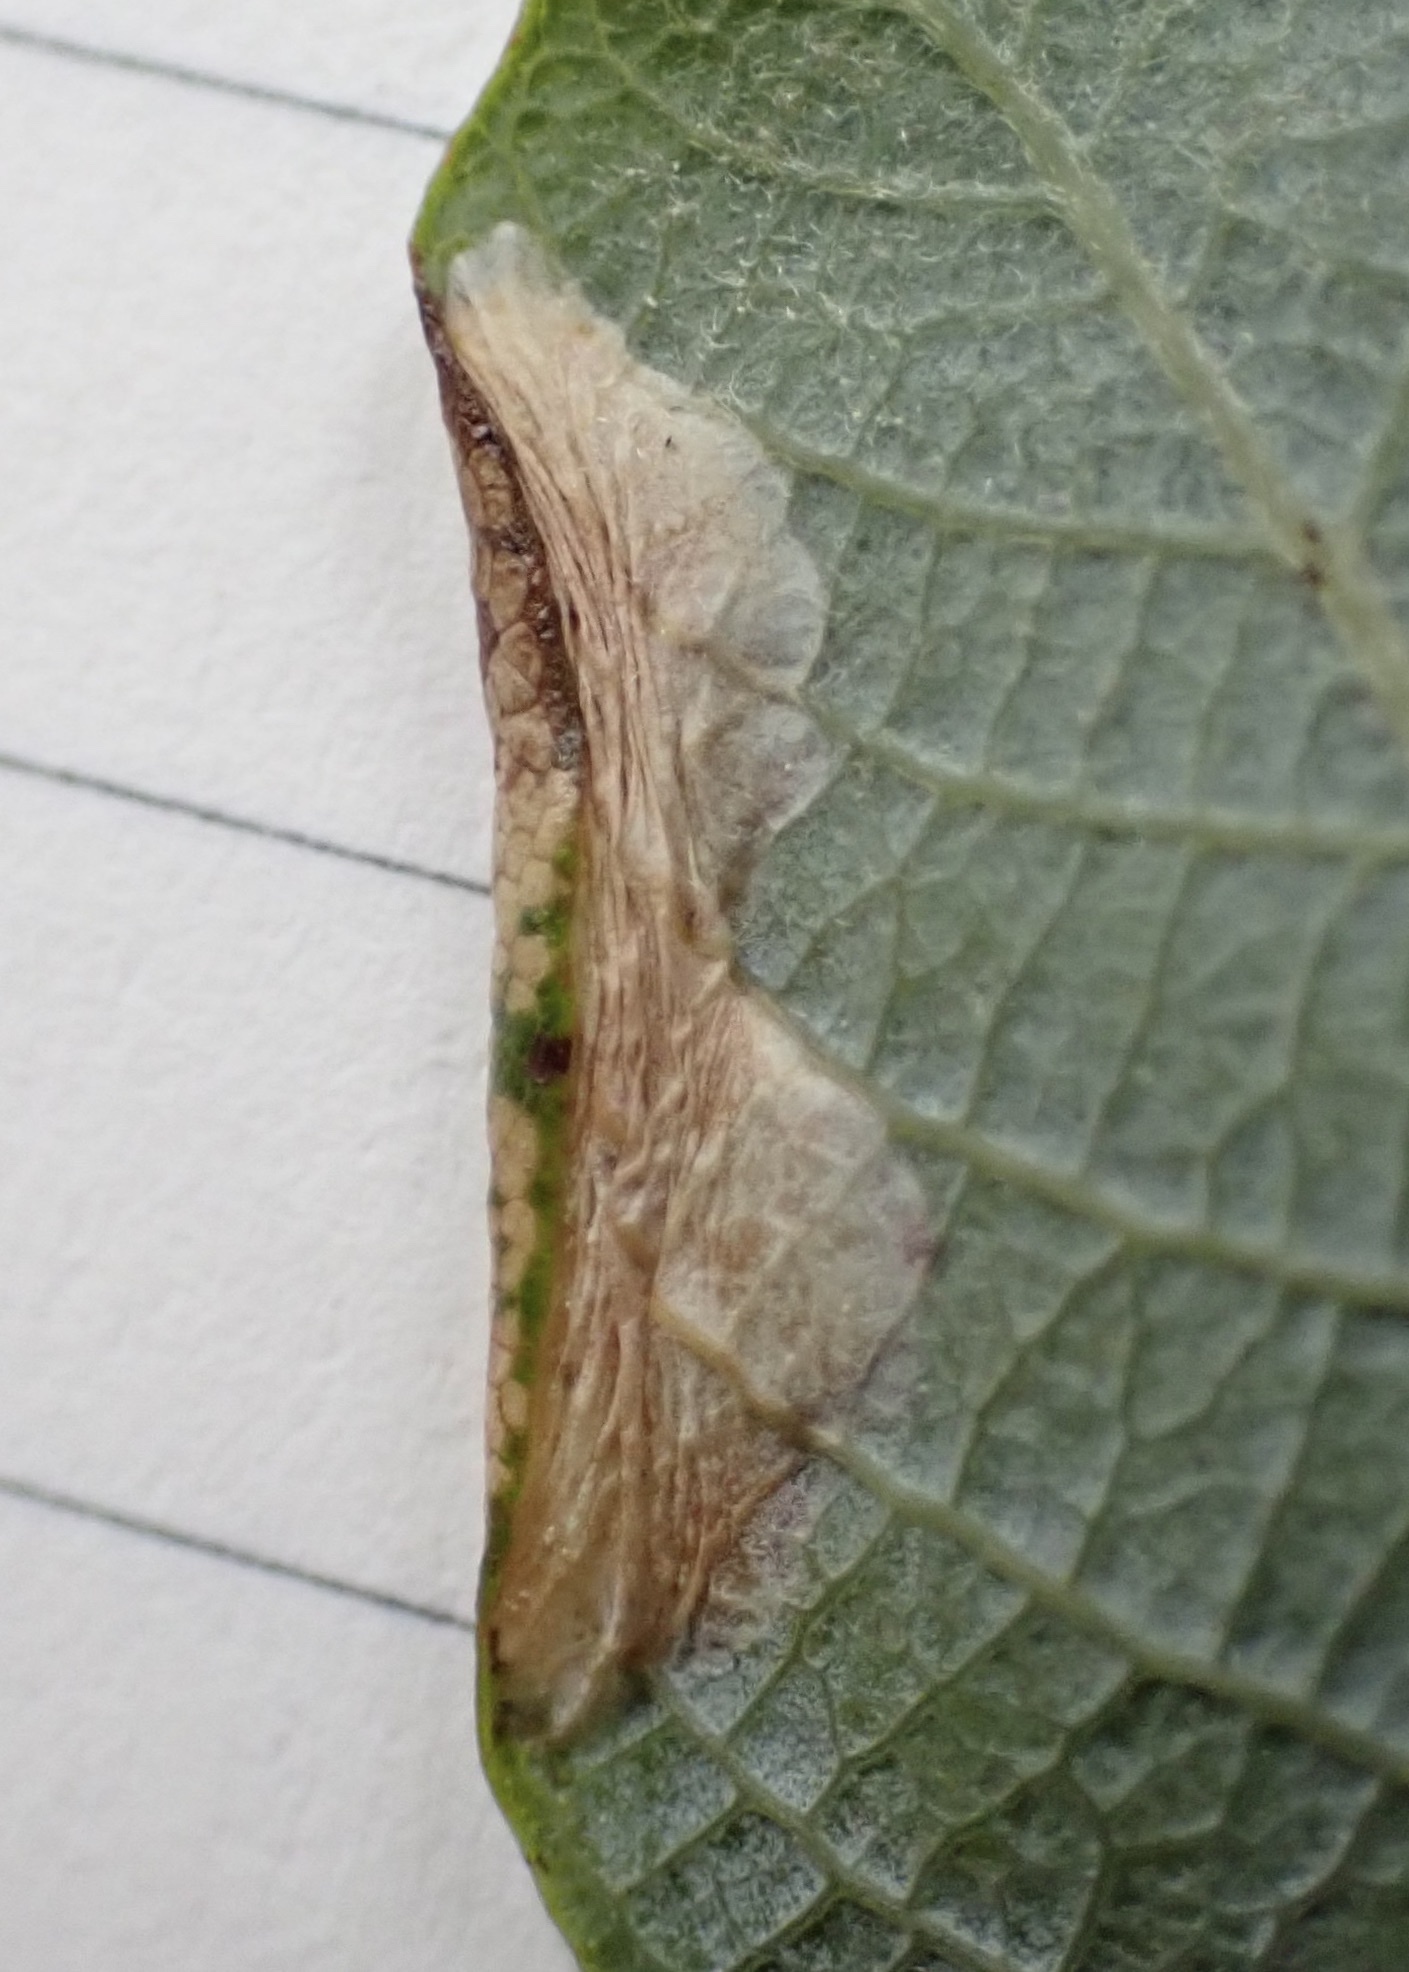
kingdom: Animalia
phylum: Arthropoda
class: Insecta
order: Lepidoptera
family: Gracillariidae
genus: Phyllonorycter
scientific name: Phyllonorycter scudderella
